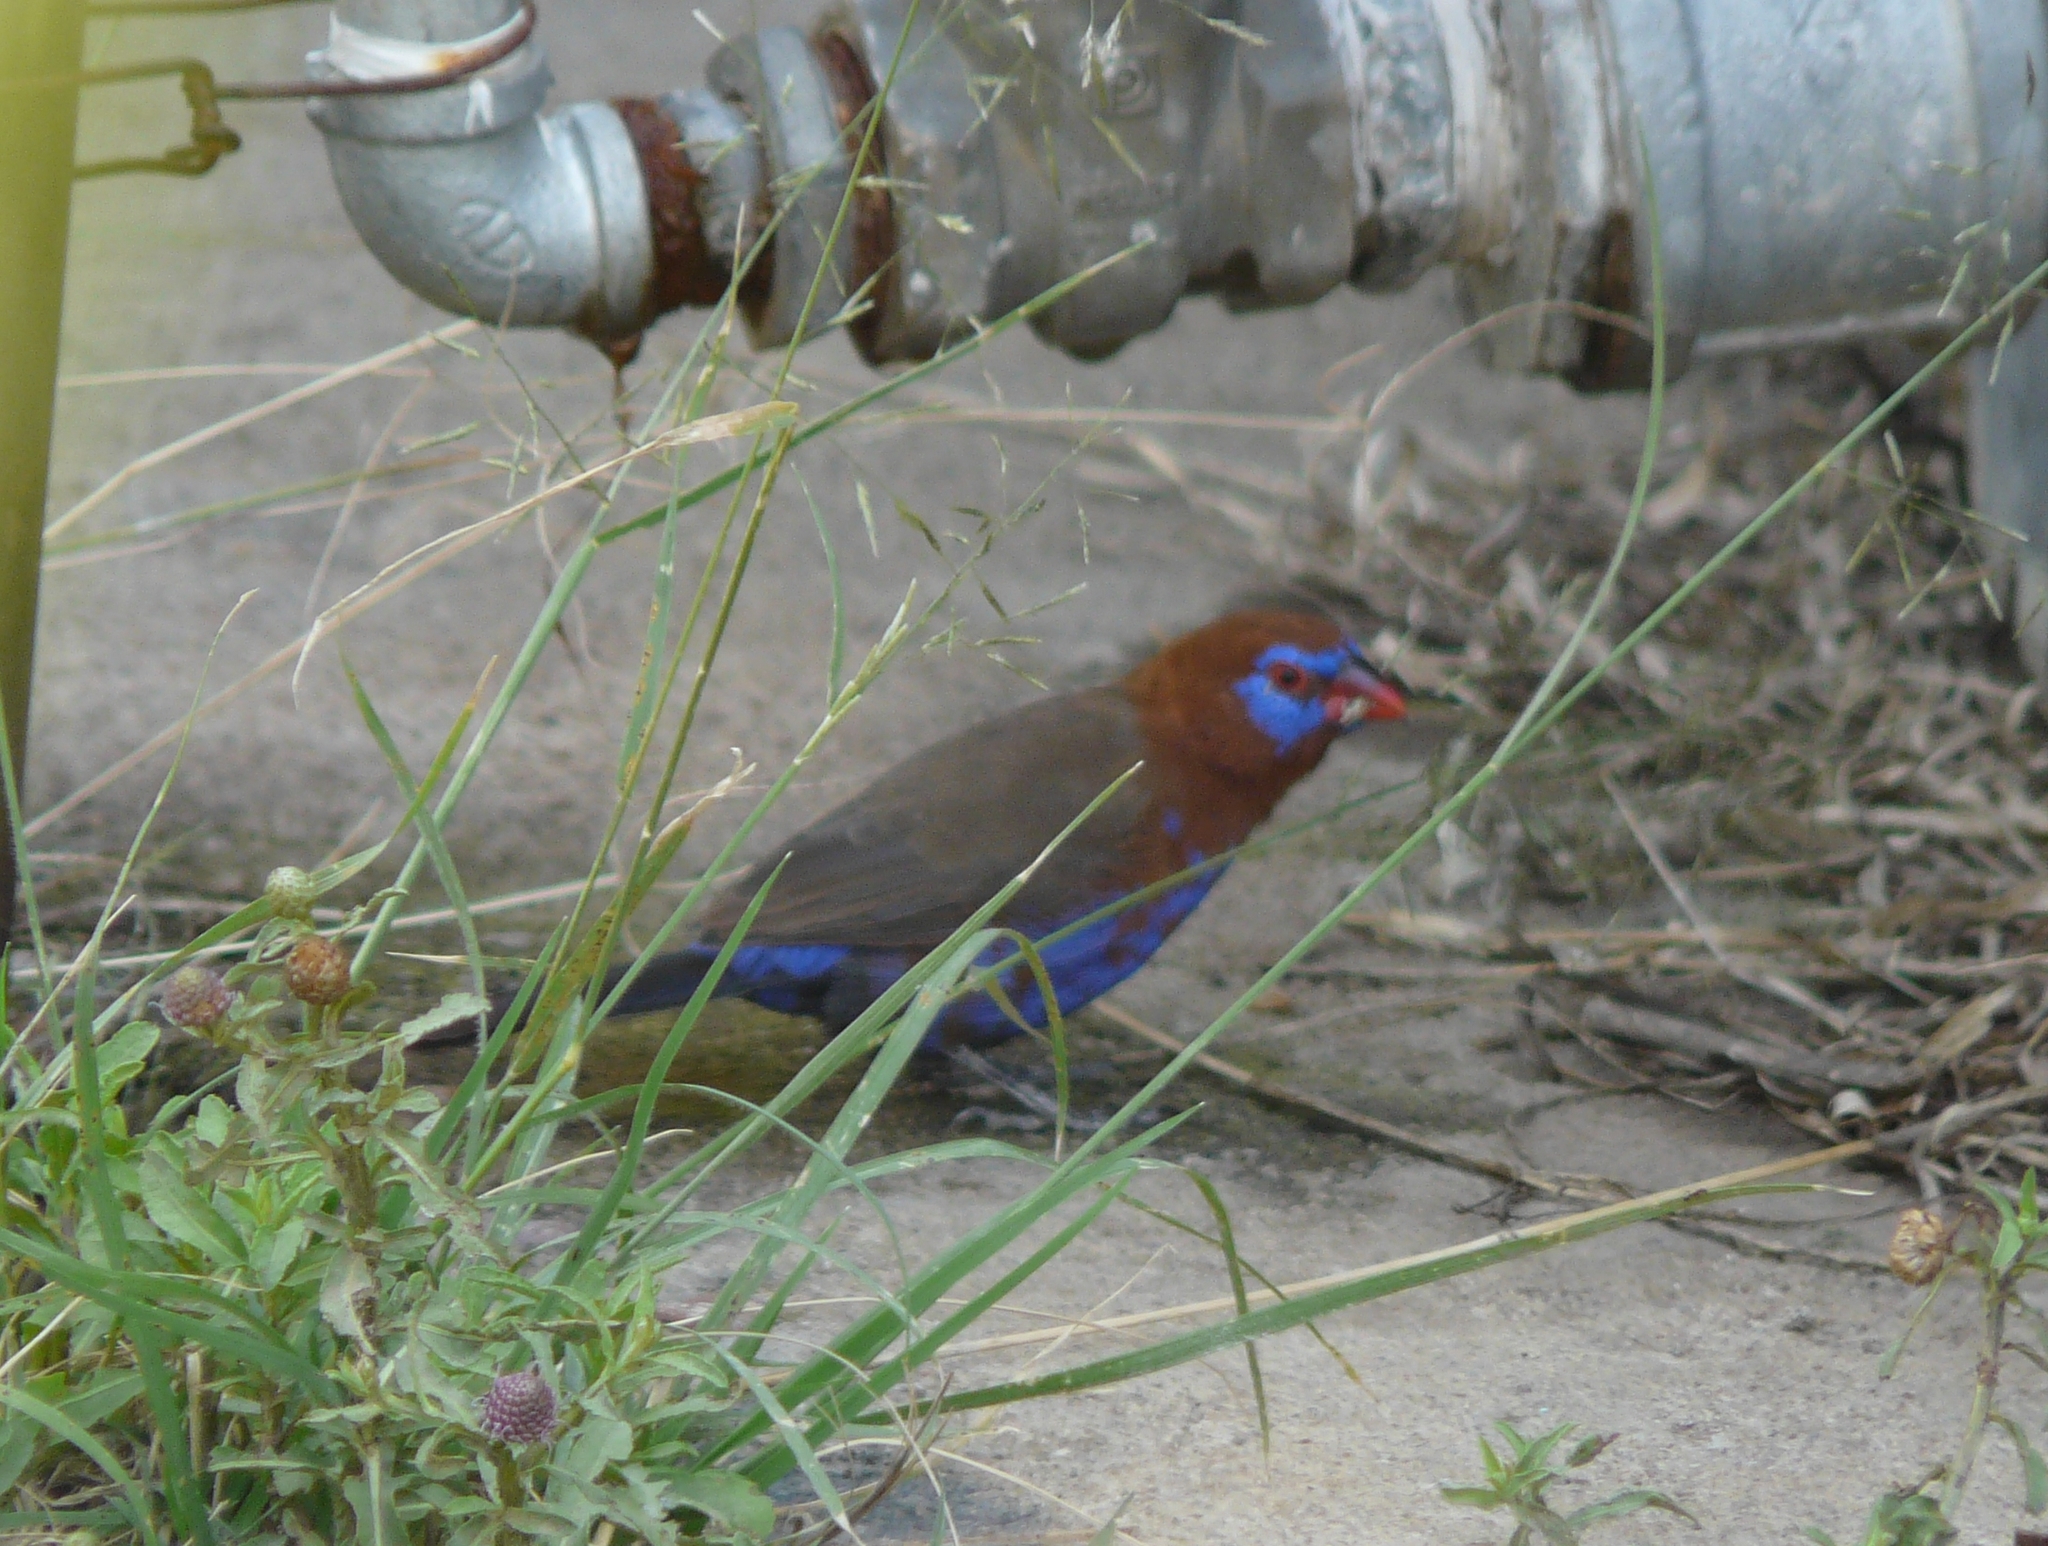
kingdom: Animalia
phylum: Chordata
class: Aves
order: Passeriformes
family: Estrildidae
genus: Uraeginthus
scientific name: Uraeginthus ianthinogaster
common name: Purple grenadier
